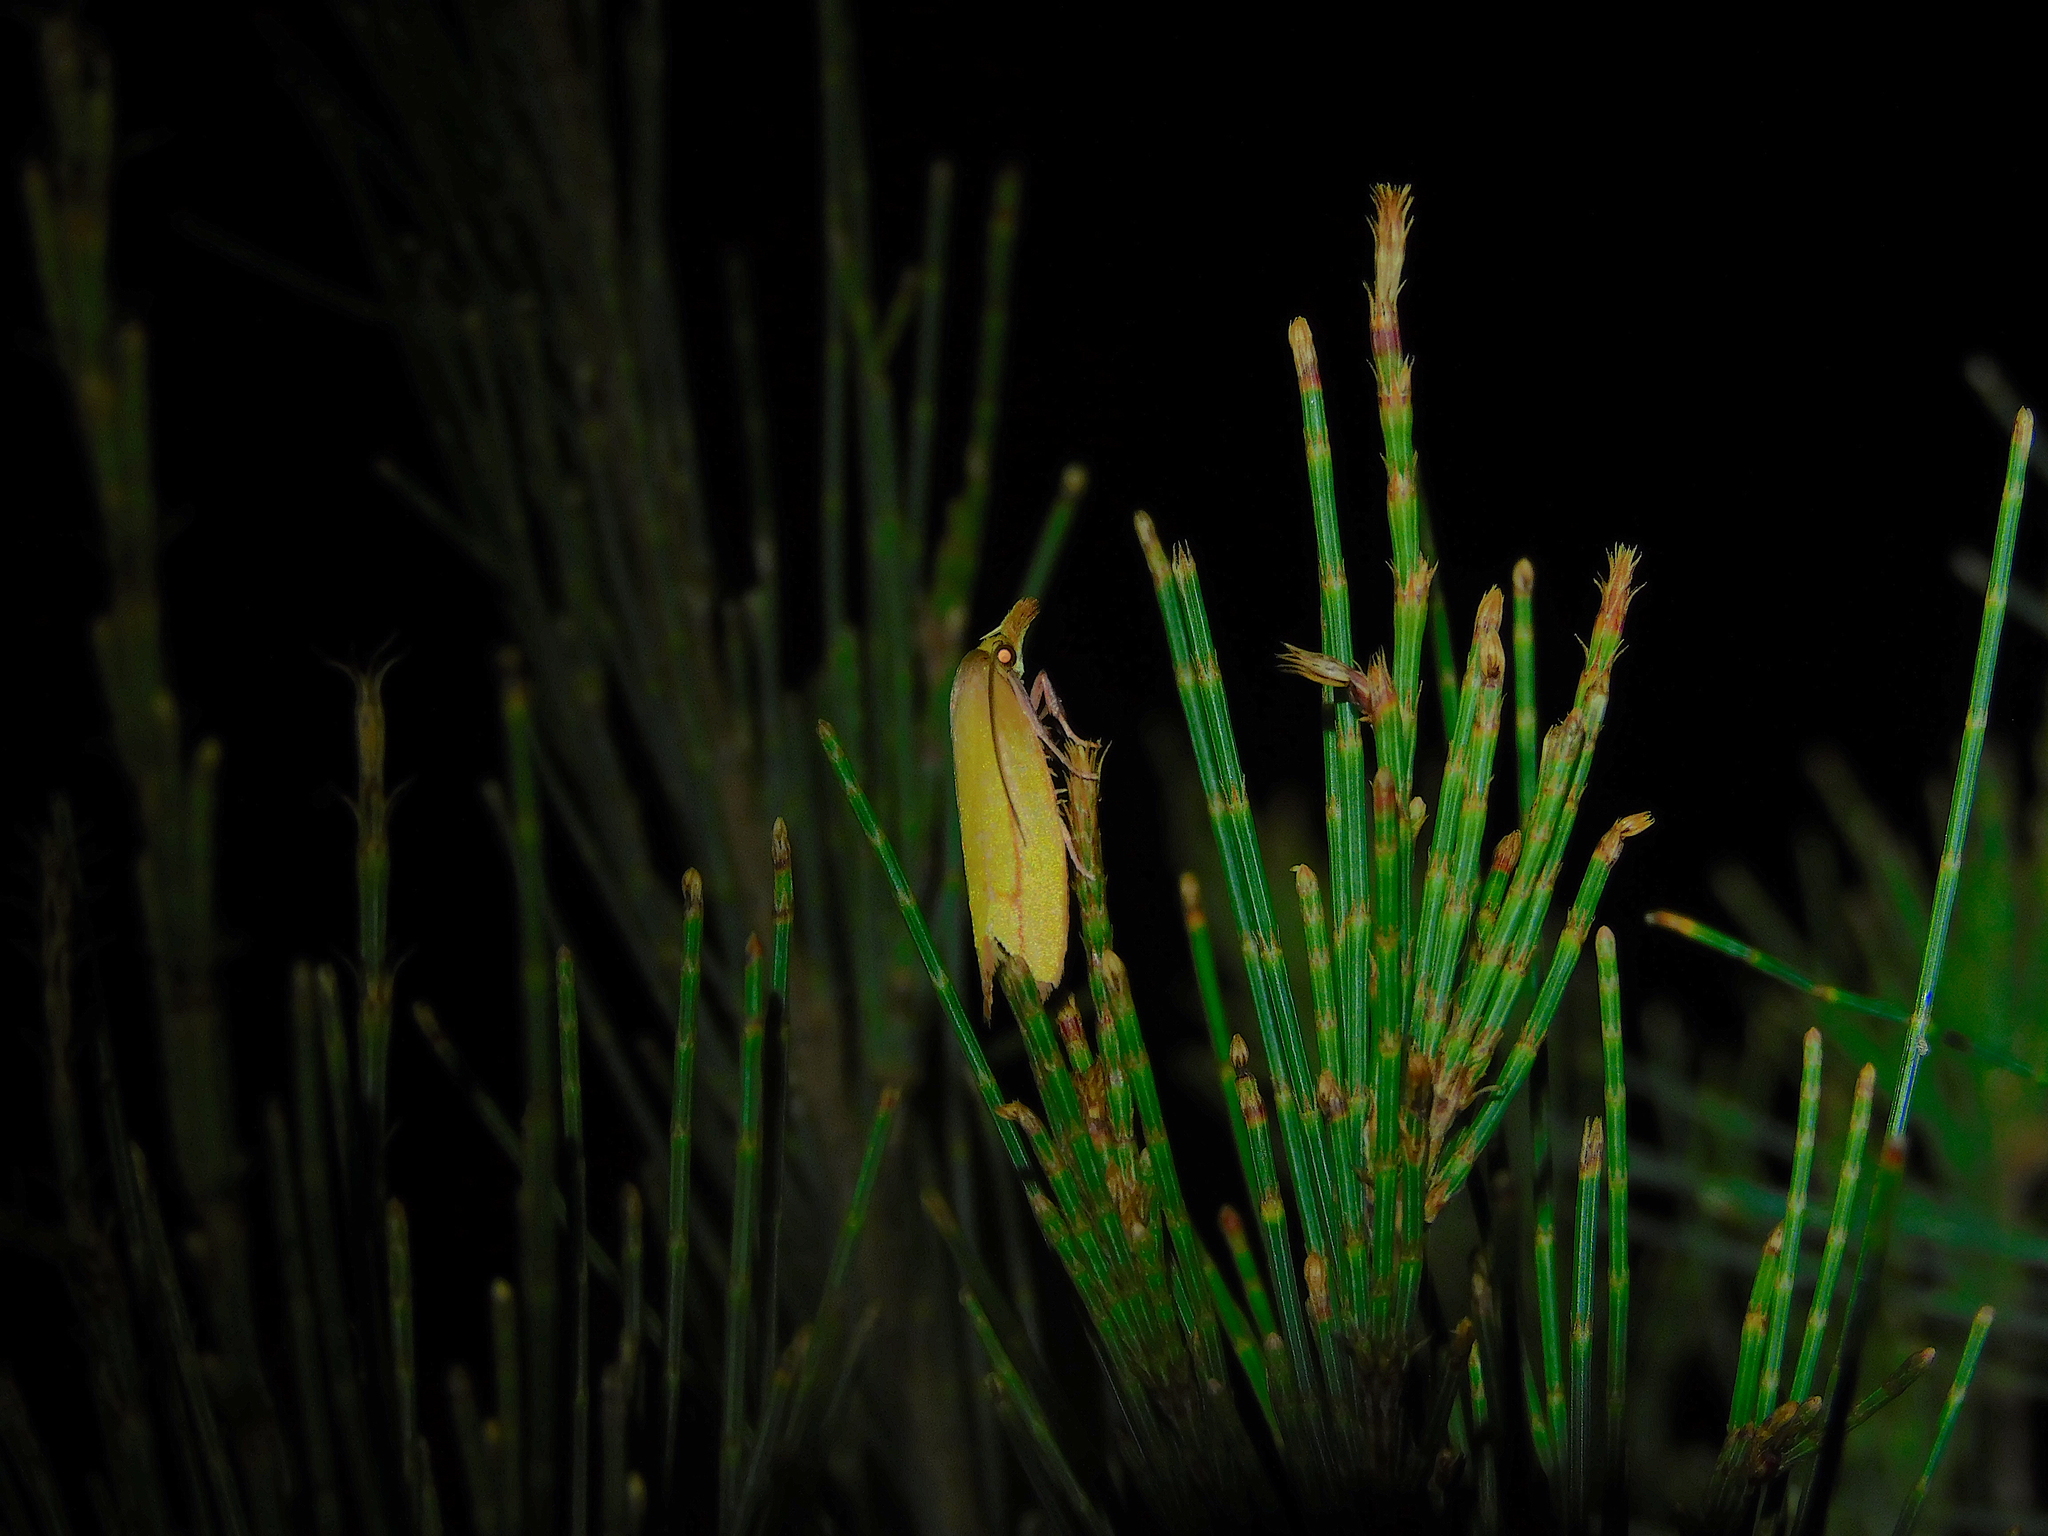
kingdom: Animalia
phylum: Arthropoda
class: Insecta
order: Lepidoptera
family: Oecophoridae
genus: Wingia
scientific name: Wingia aurata
